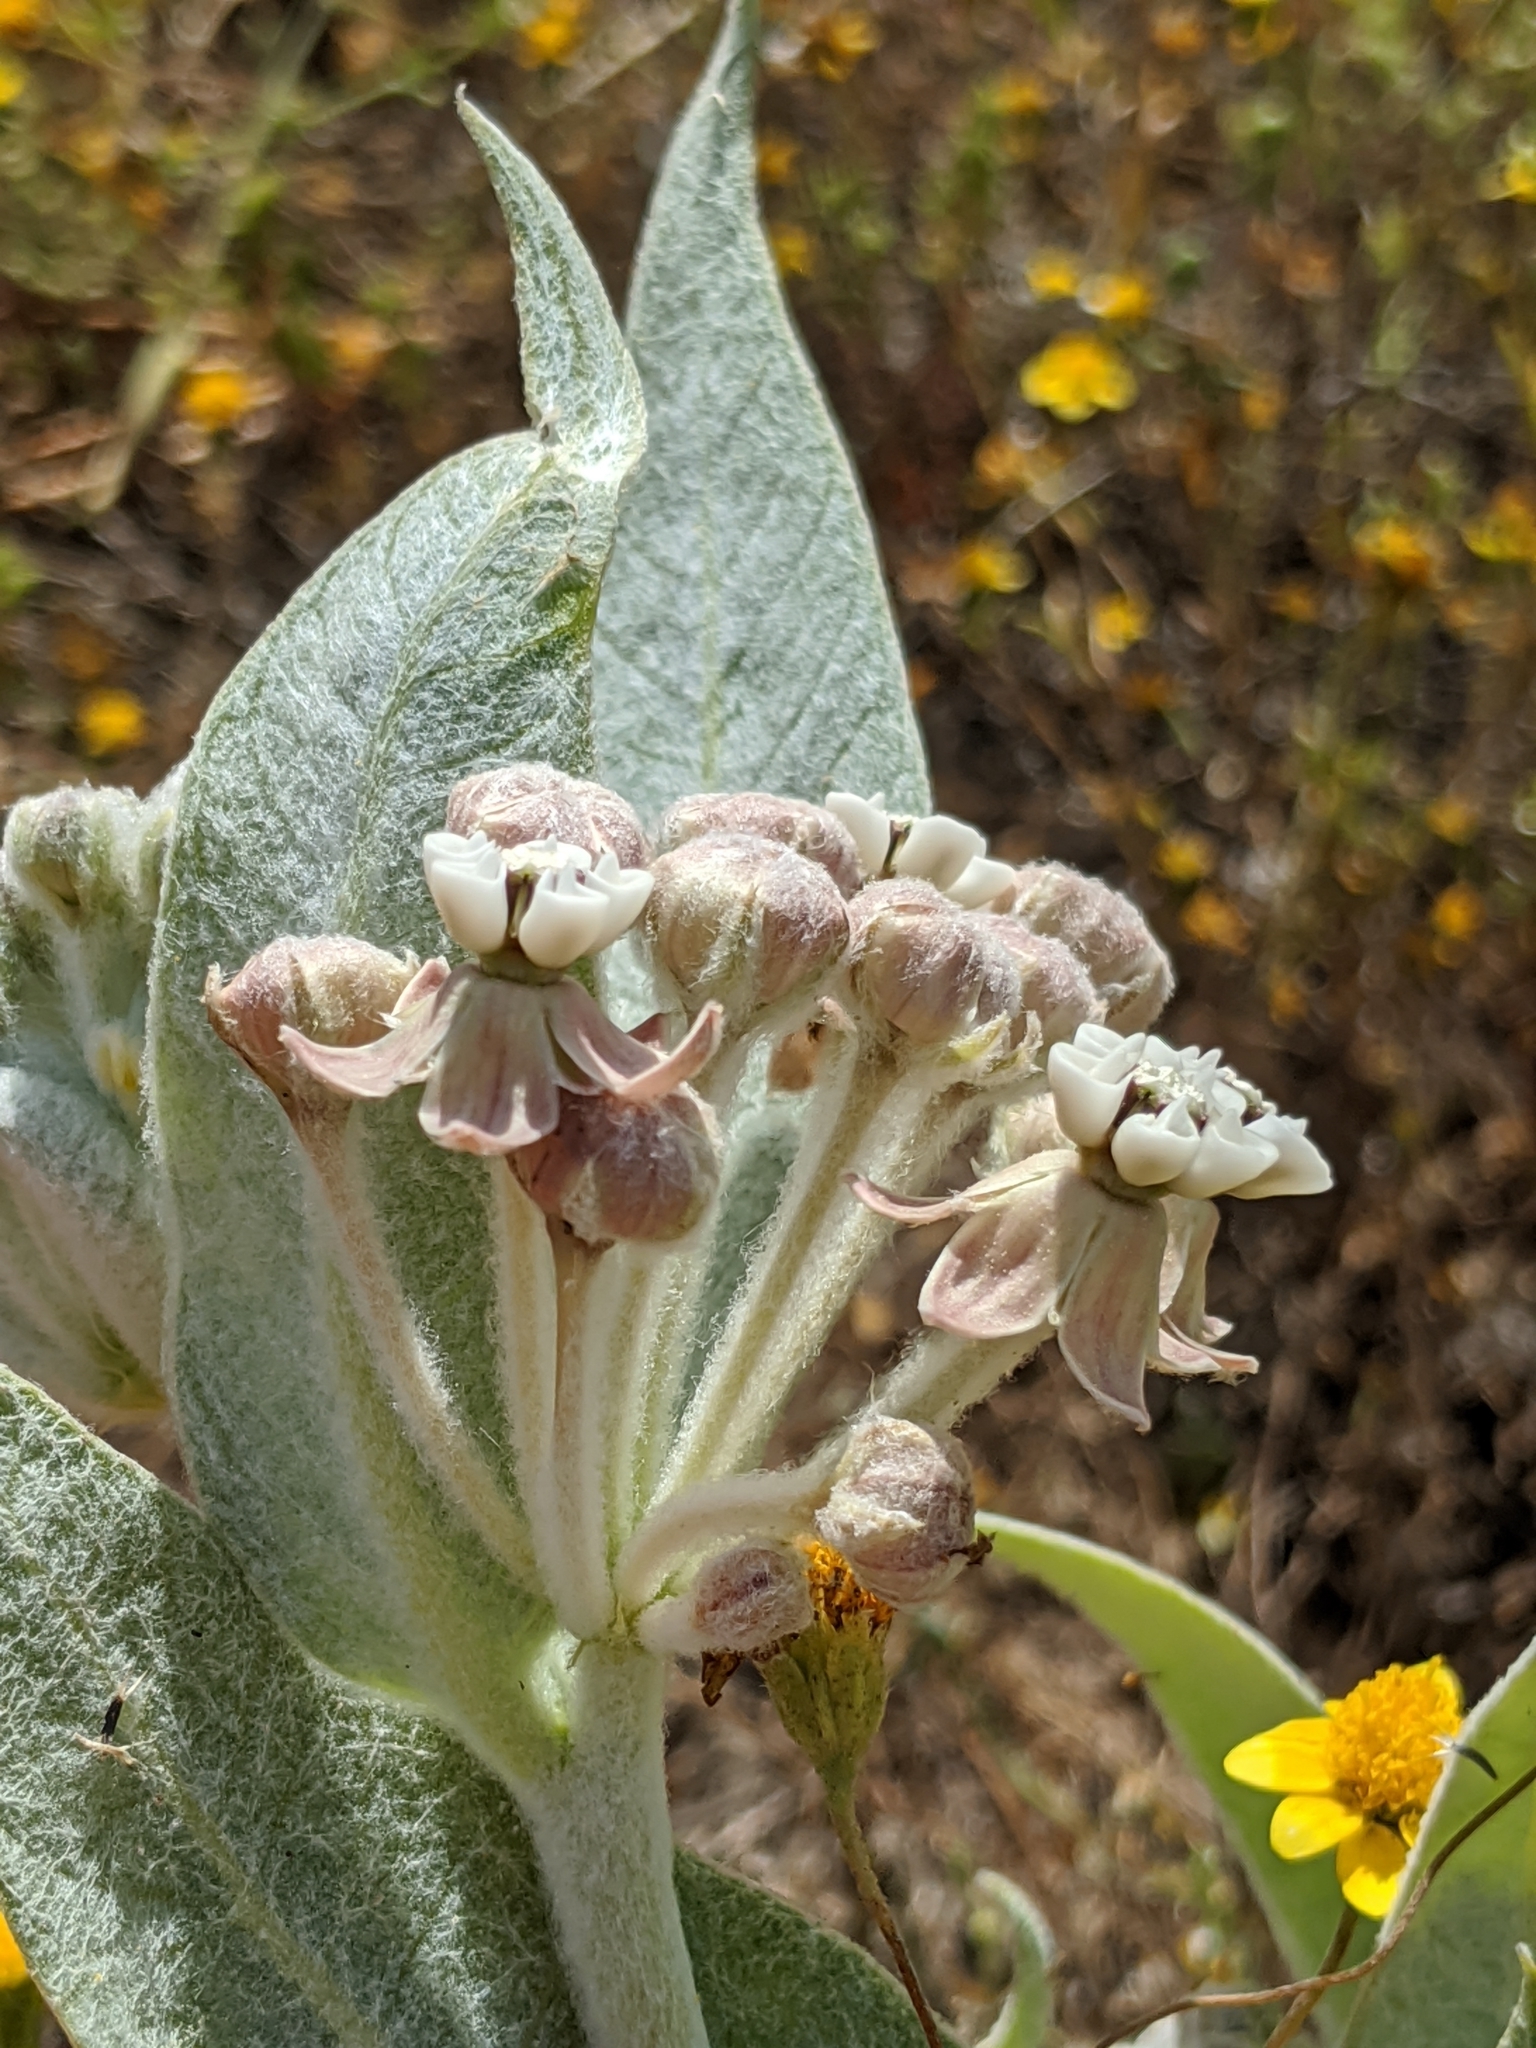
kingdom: Plantae
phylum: Tracheophyta
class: Magnoliopsida
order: Gentianales
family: Apocynaceae
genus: Asclepias
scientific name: Asclepias vestita
